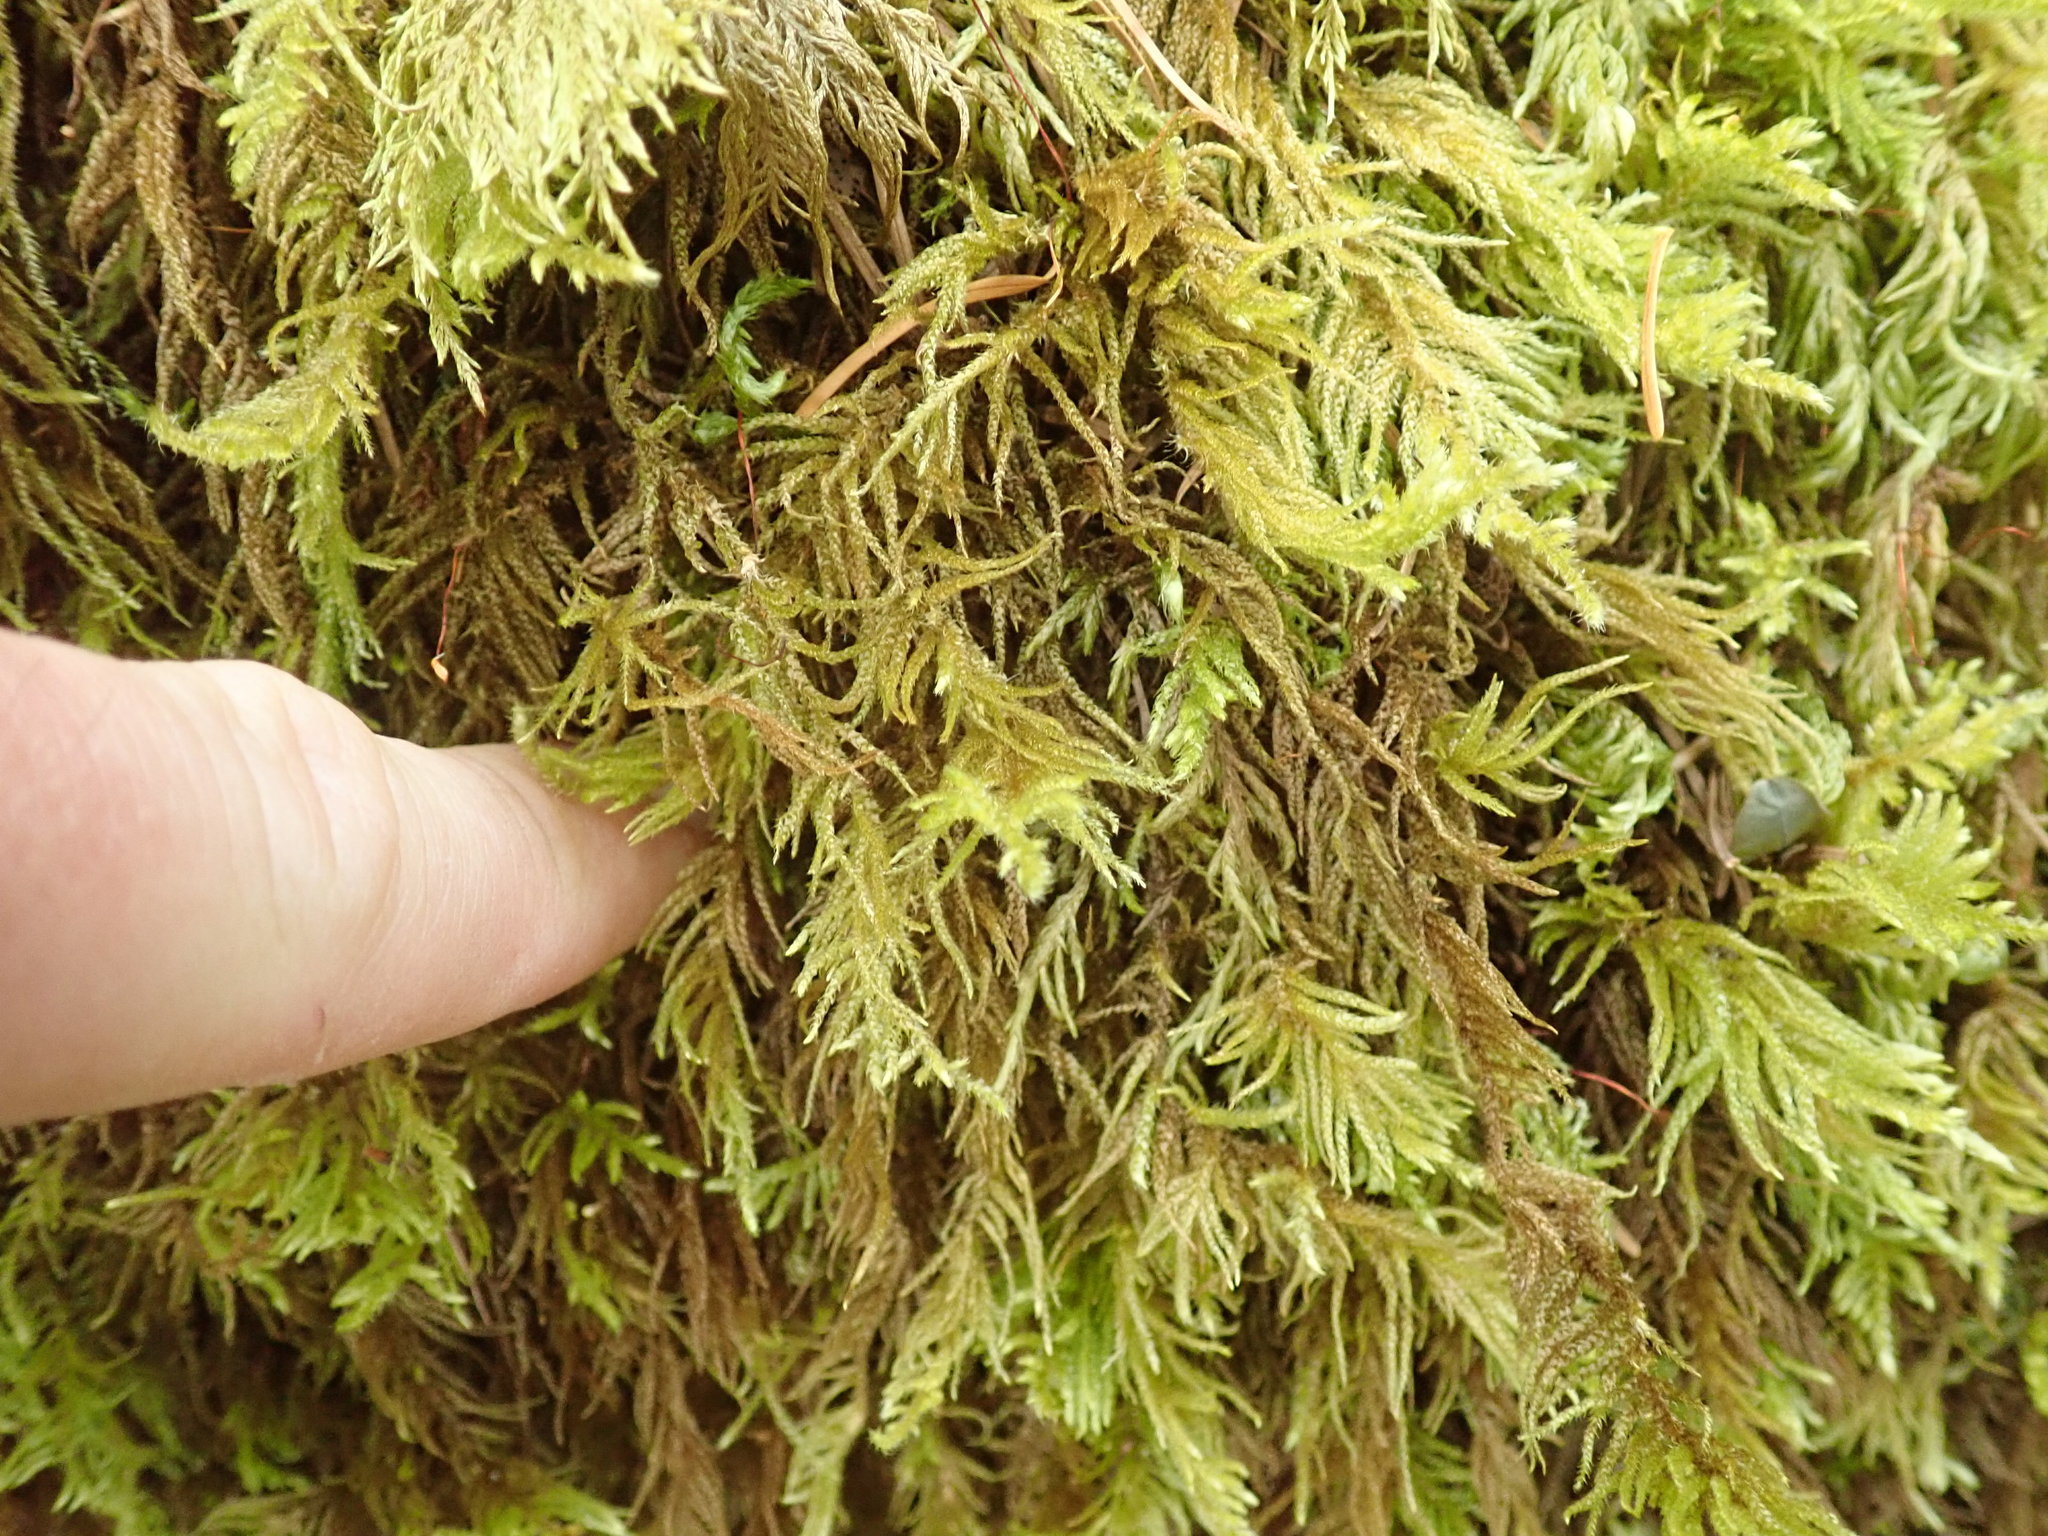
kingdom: Plantae
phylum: Bryophyta
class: Bryopsida
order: Hypnales
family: Brachytheciaceae
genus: Kindbergia
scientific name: Kindbergia oregana
